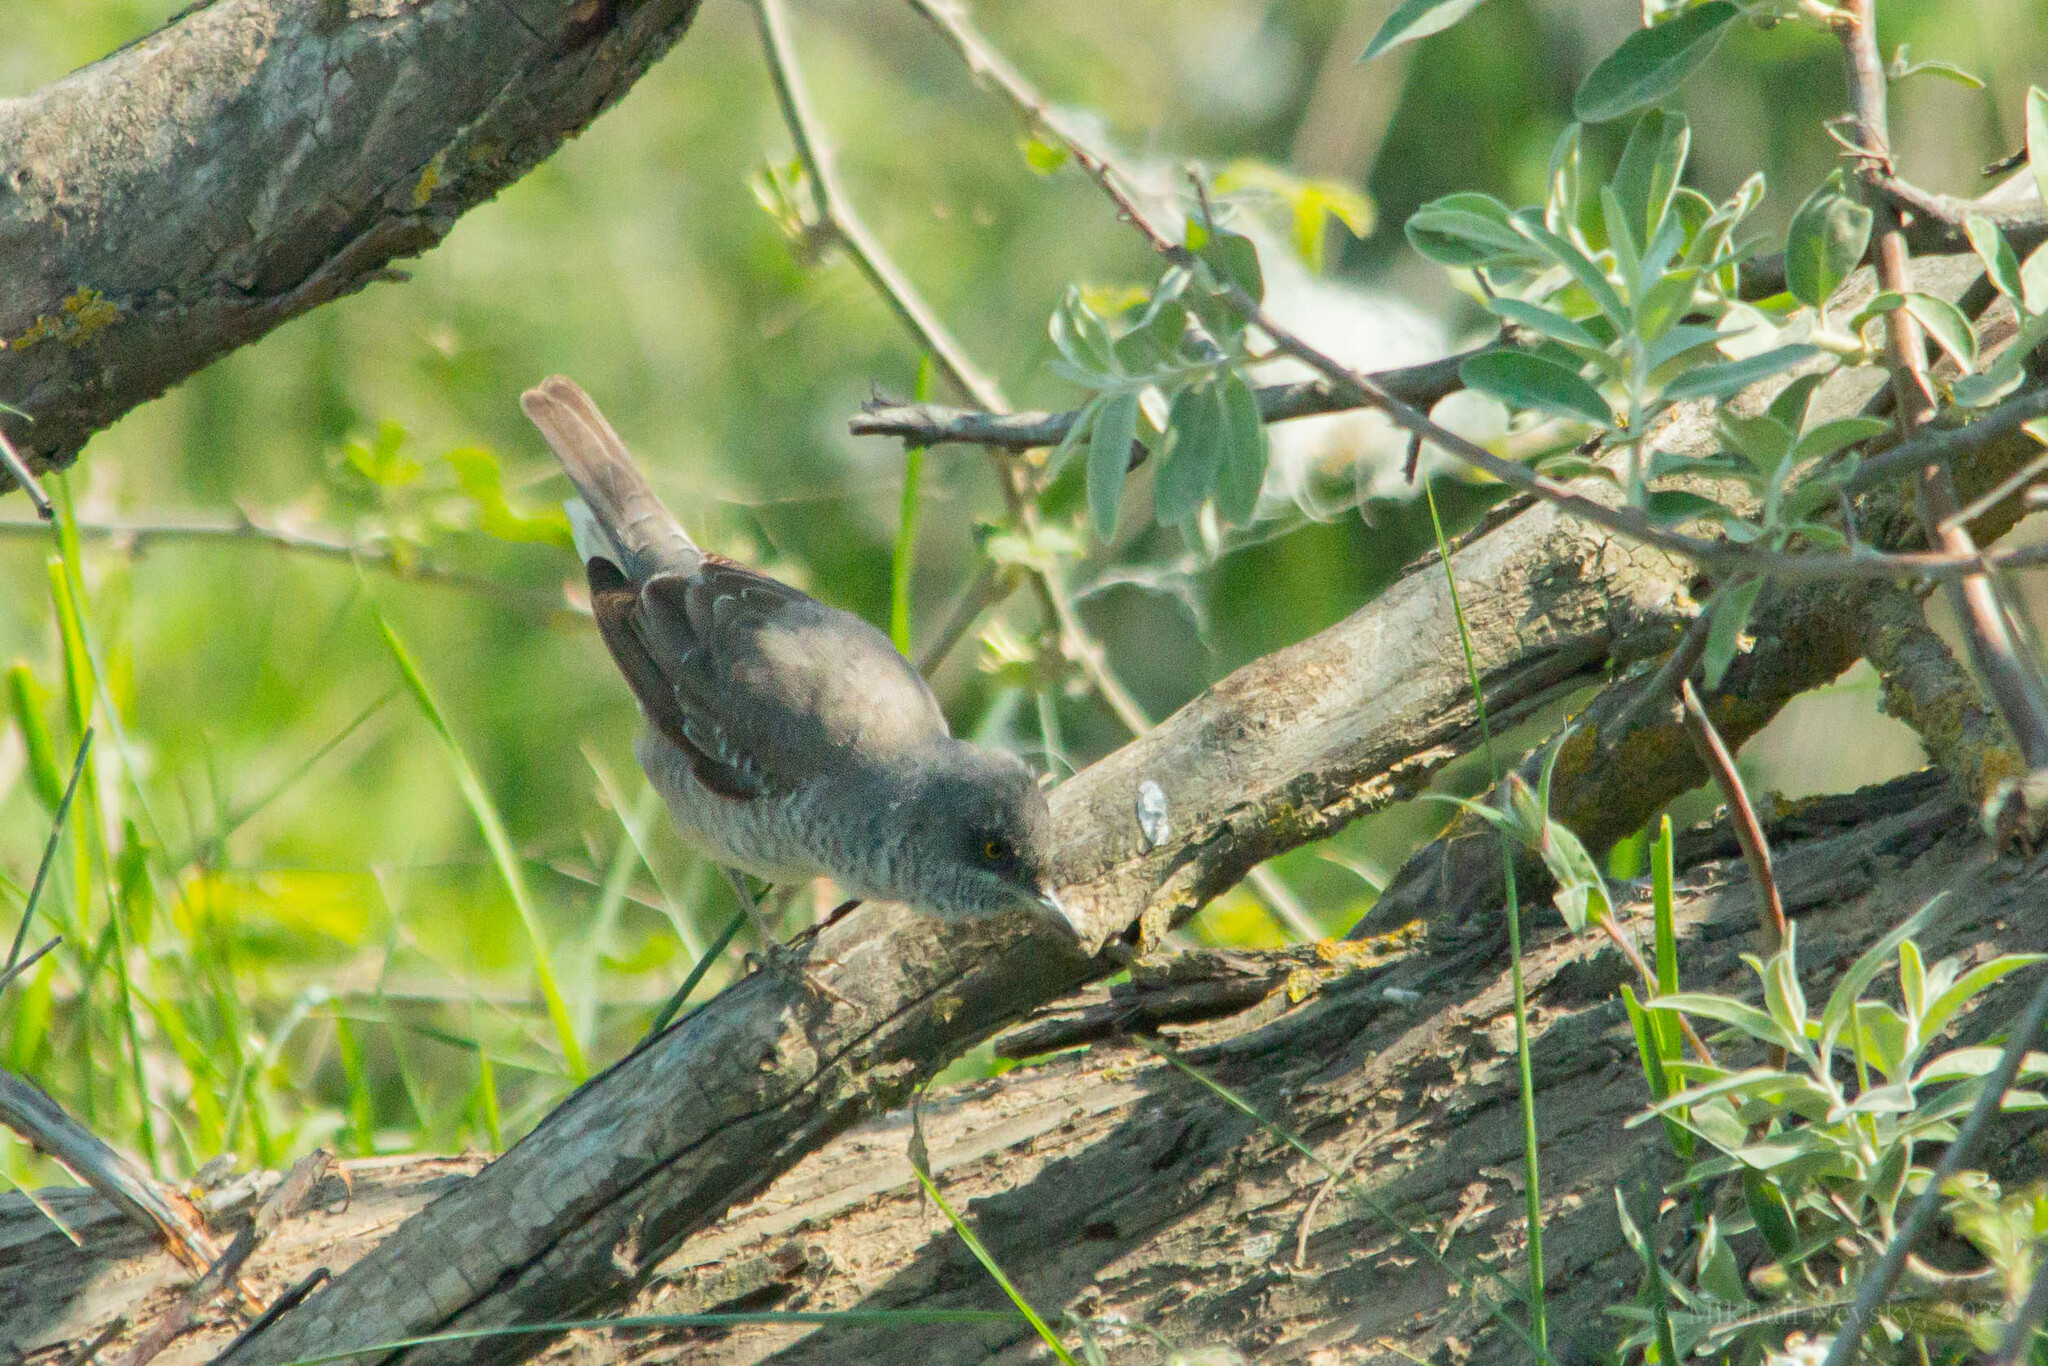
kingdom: Animalia
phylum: Chordata
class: Aves
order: Passeriformes
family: Sylviidae
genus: Sylvia
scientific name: Sylvia nisoria
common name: Barred warbler
